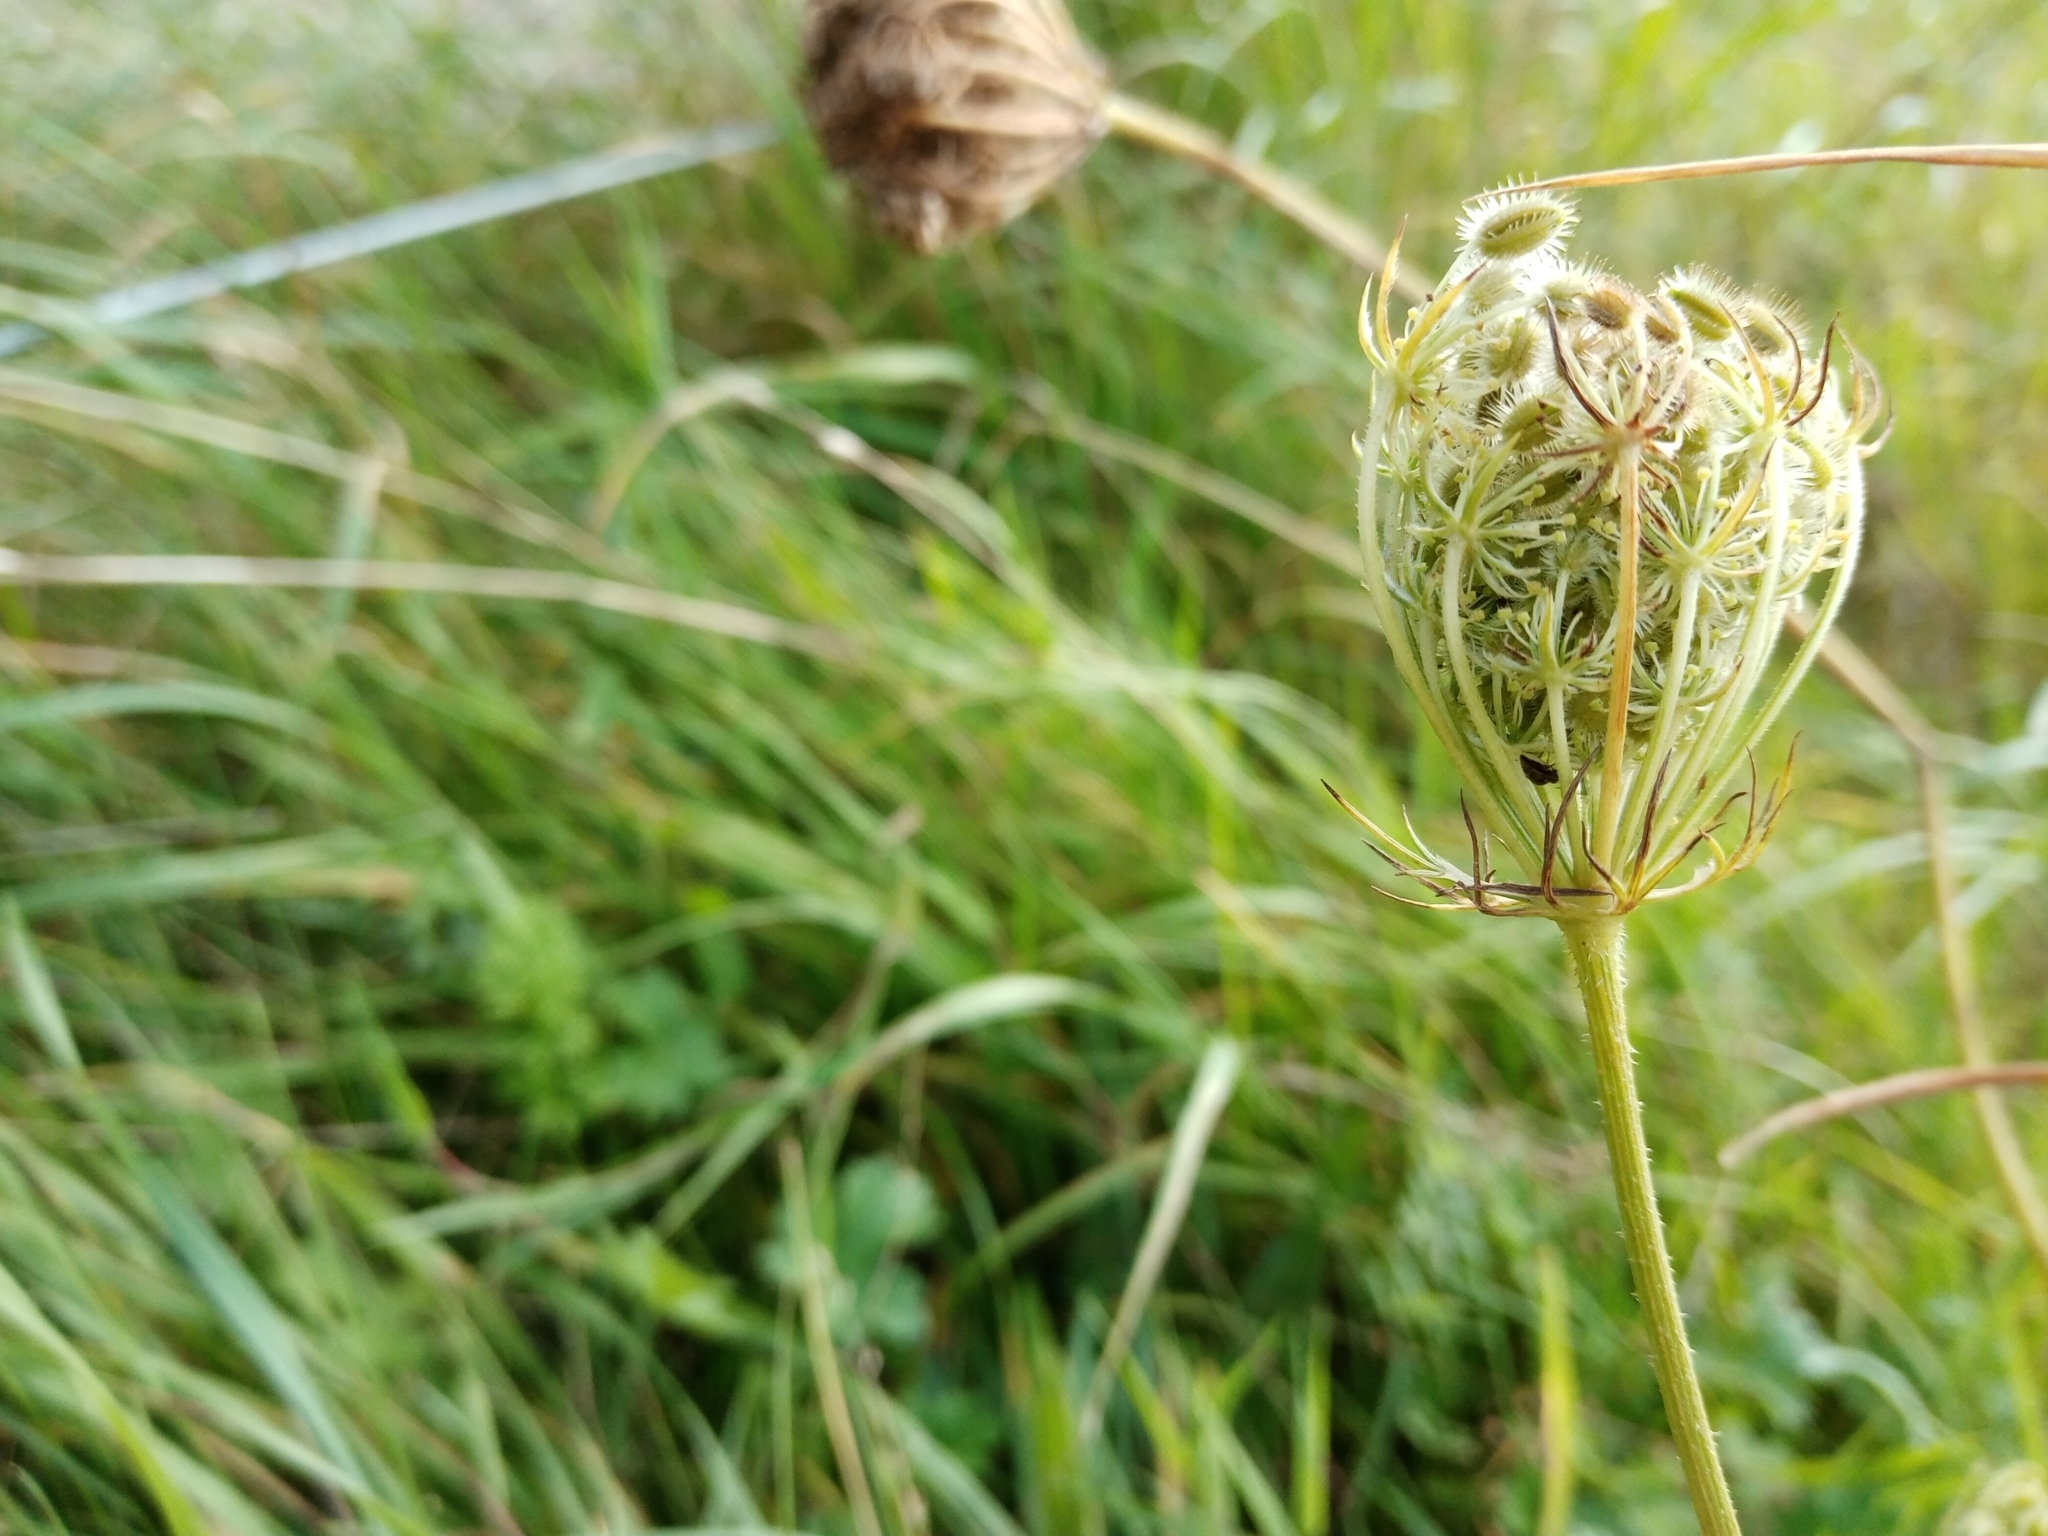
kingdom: Plantae
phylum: Tracheophyta
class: Magnoliopsida
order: Apiales
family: Apiaceae
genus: Daucus
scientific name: Daucus carota
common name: Wild carrot
